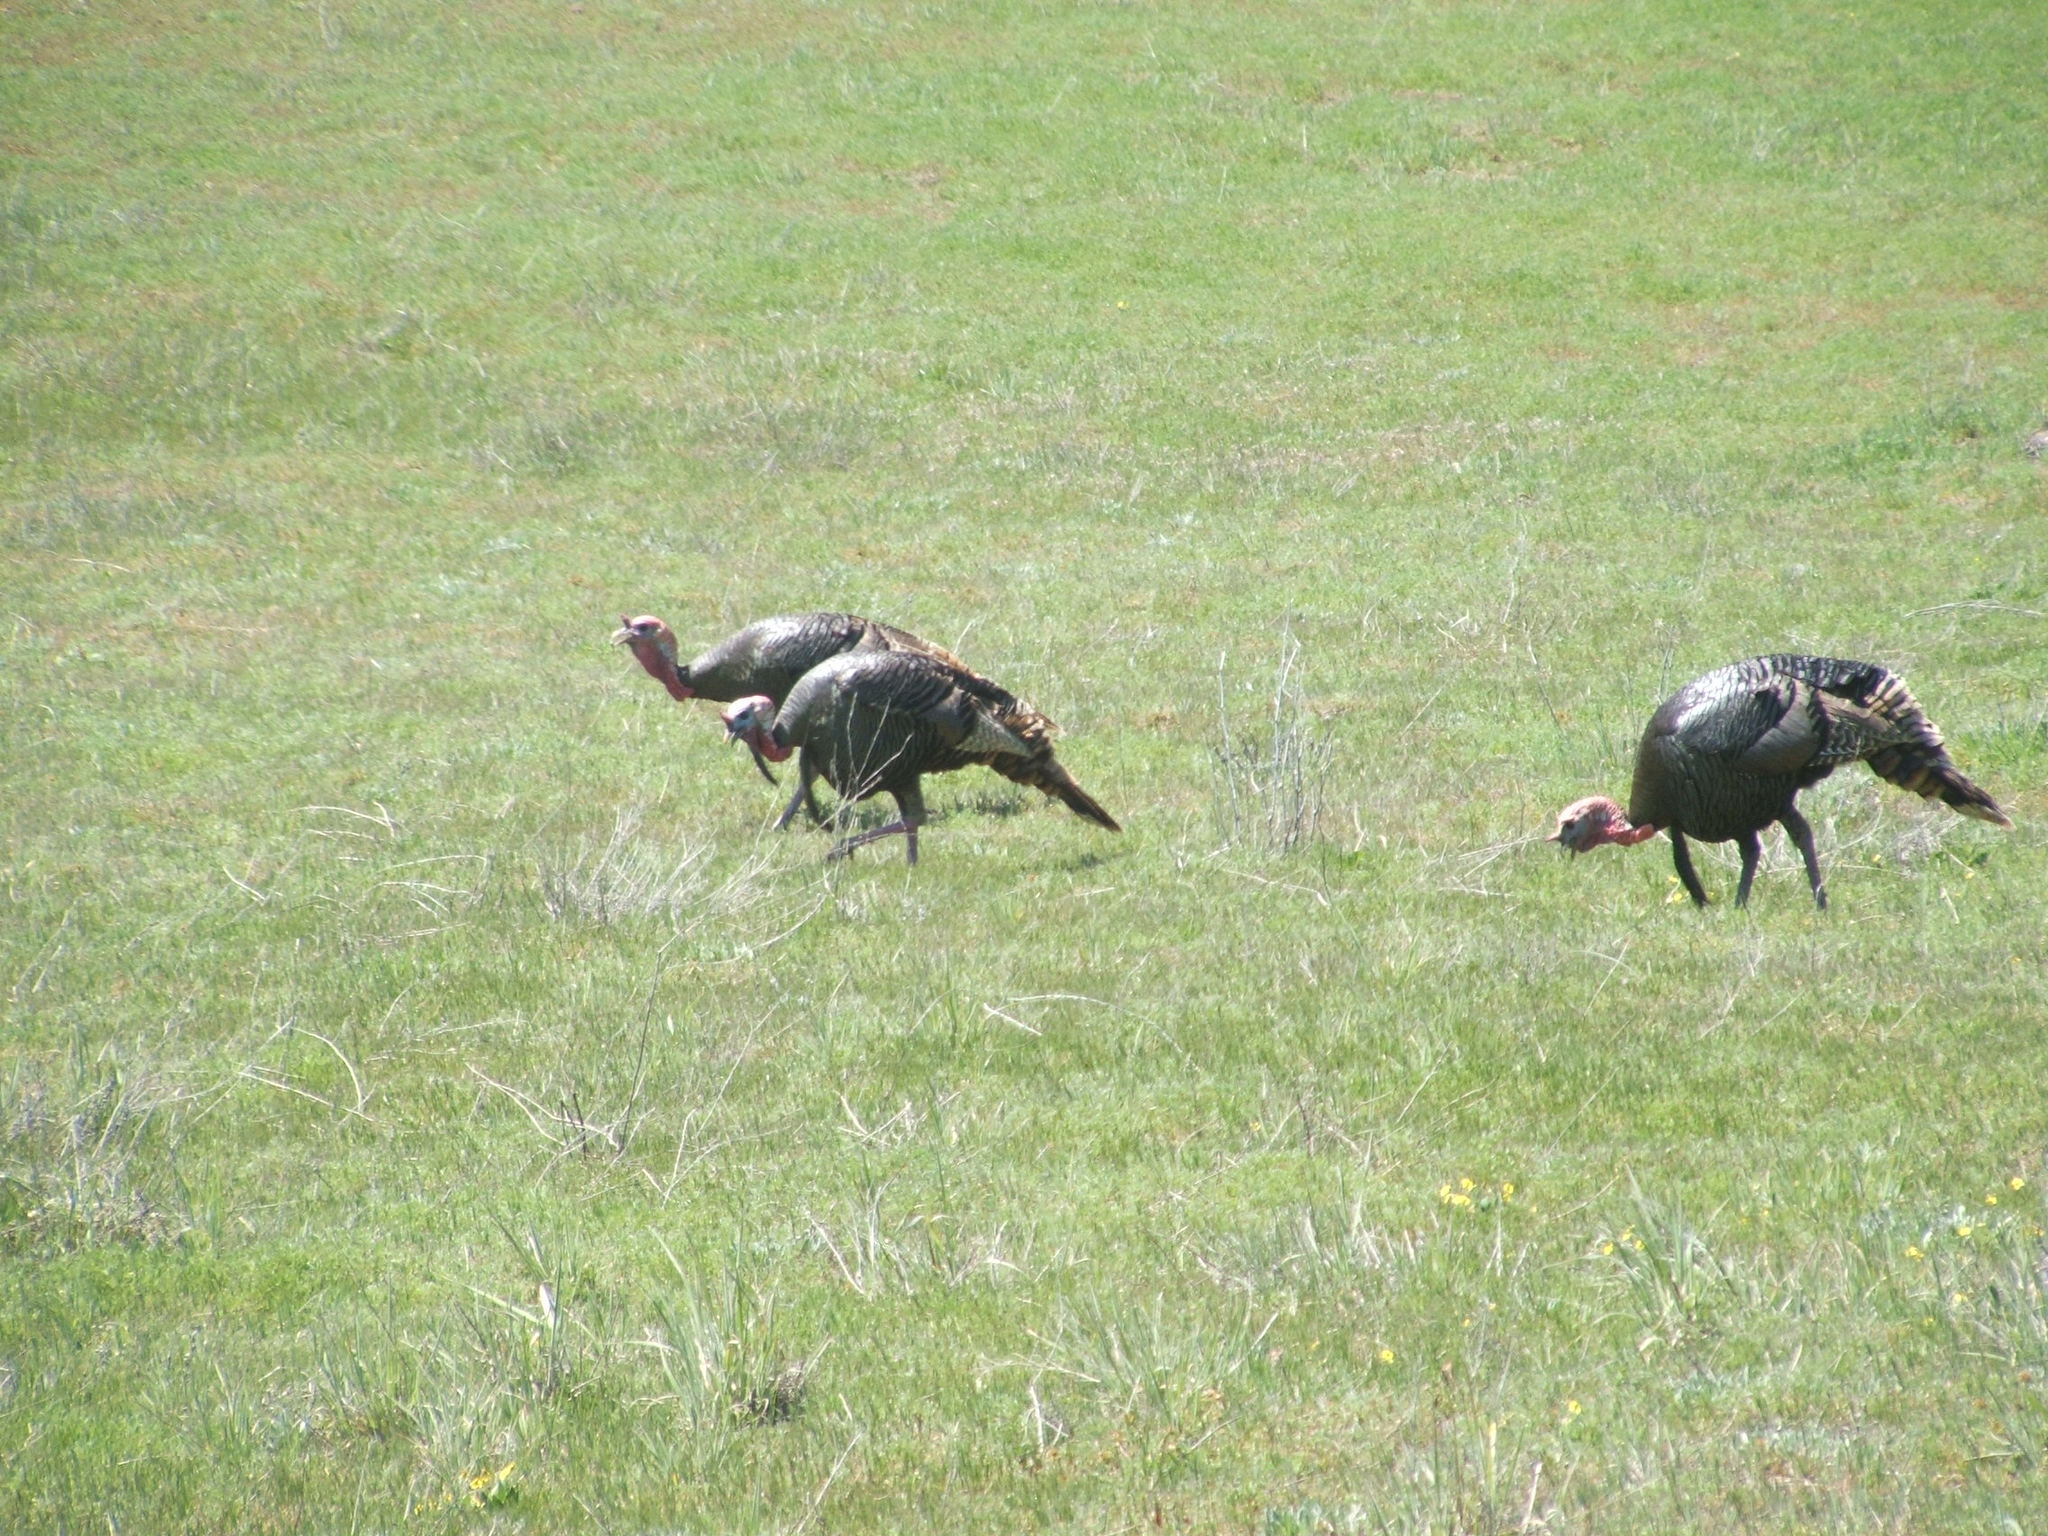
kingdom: Animalia
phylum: Chordata
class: Aves
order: Galliformes
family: Phasianidae
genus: Meleagris
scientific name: Meleagris gallopavo
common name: Wild turkey
